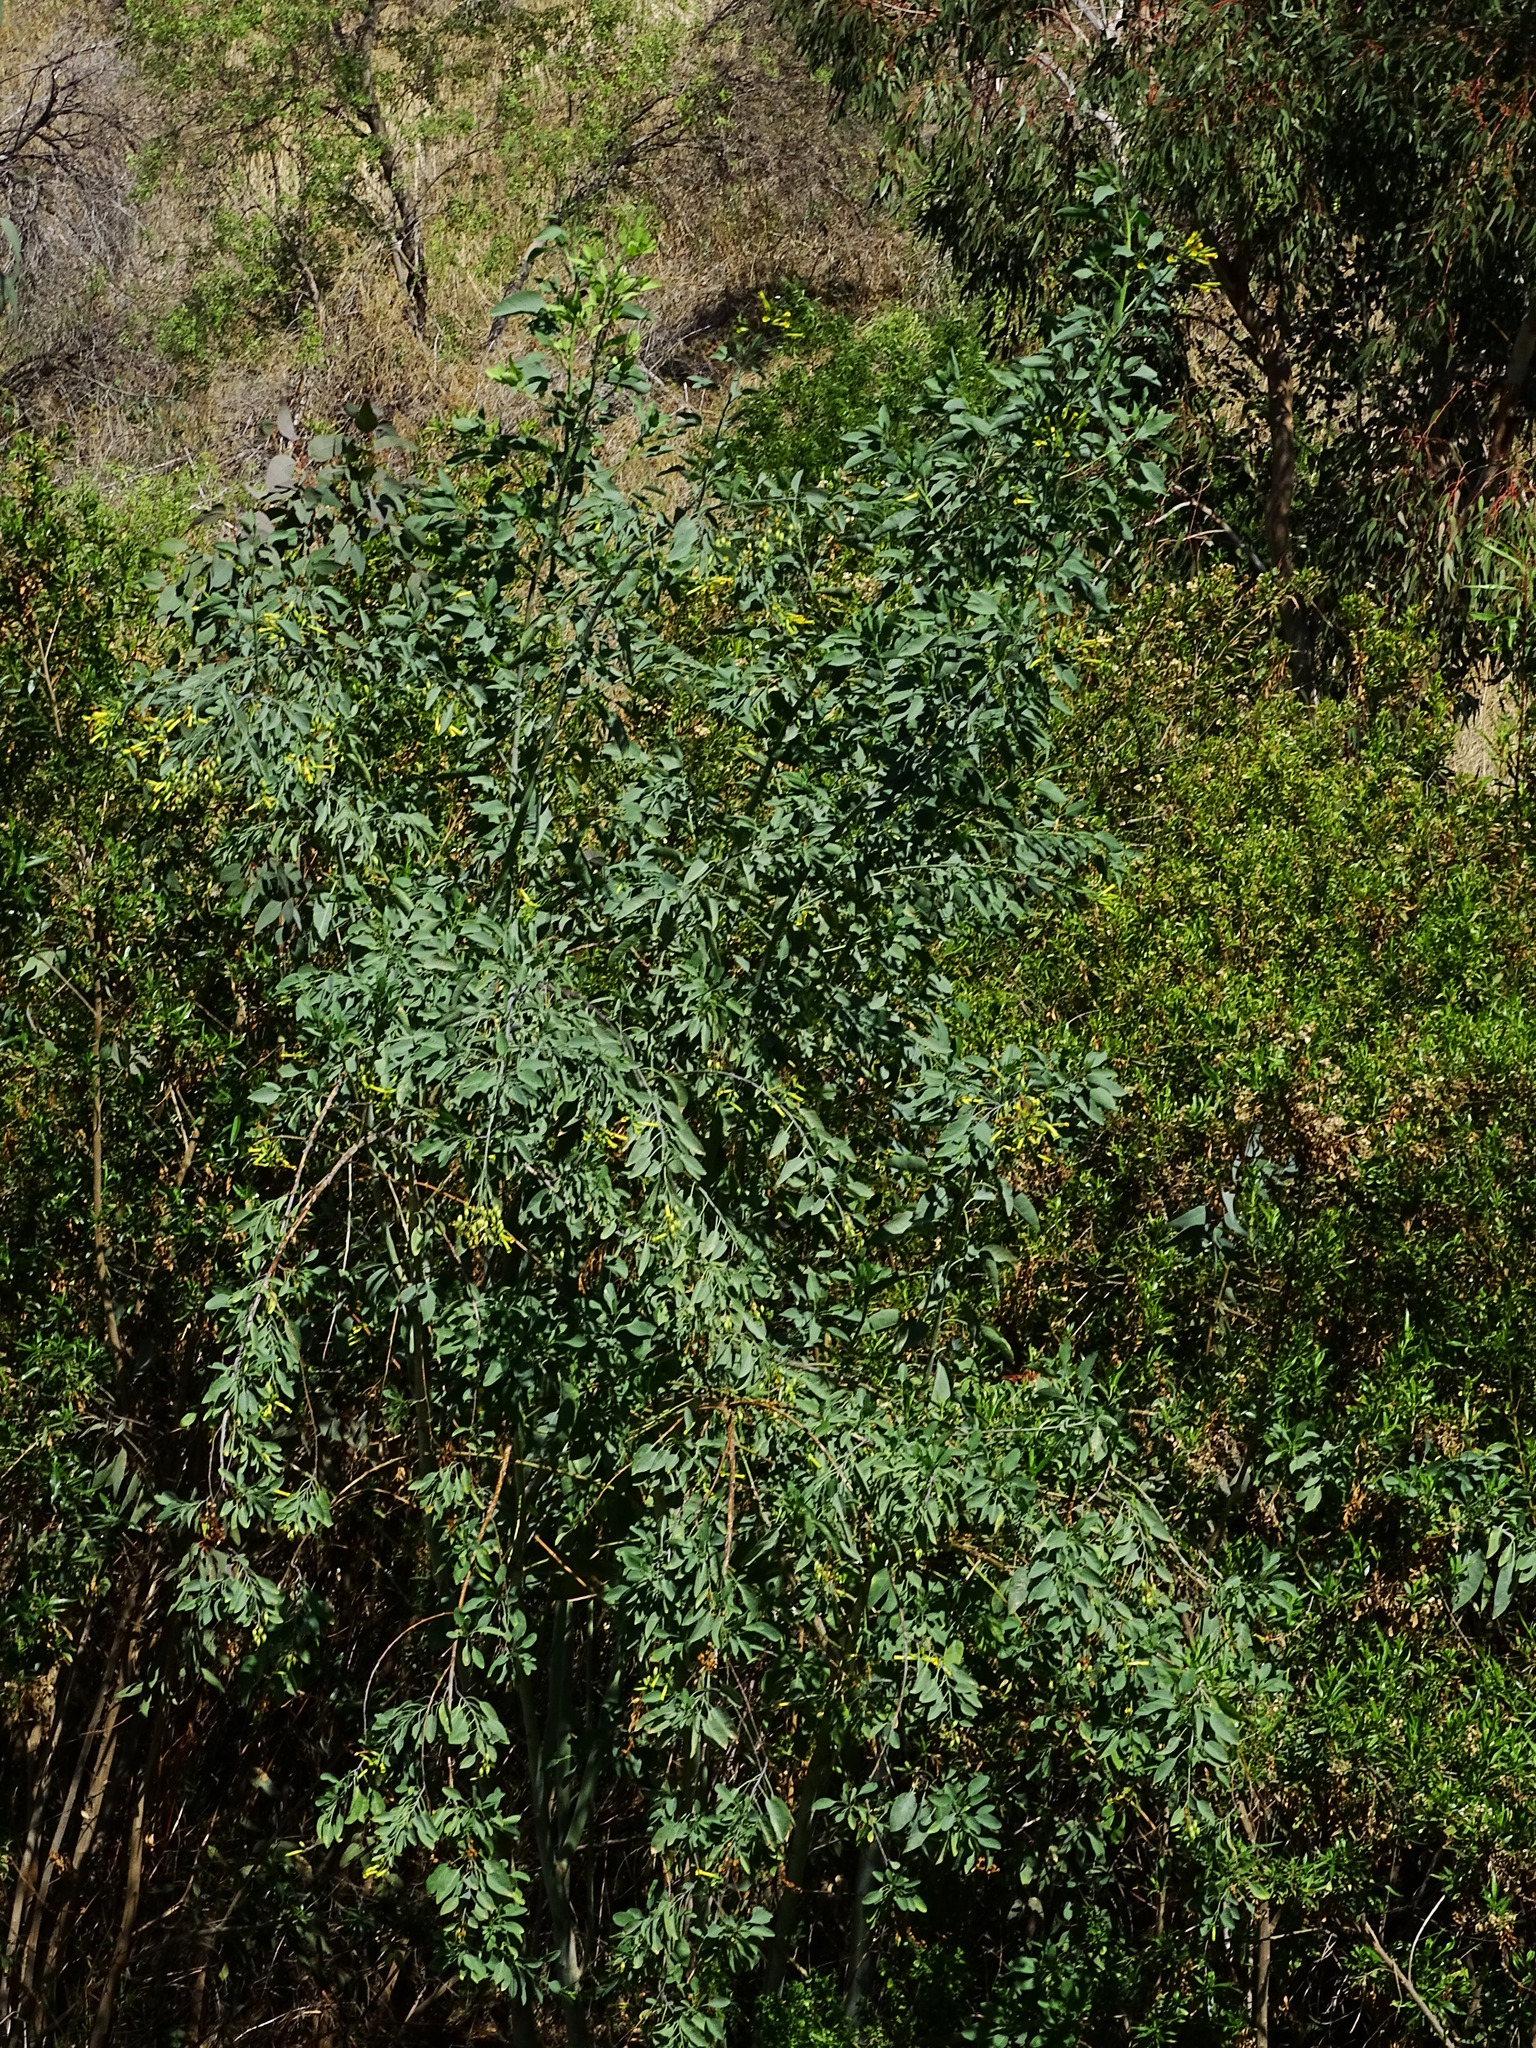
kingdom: Plantae
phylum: Tracheophyta
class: Magnoliopsida
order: Solanales
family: Solanaceae
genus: Nicotiana
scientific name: Nicotiana glauca
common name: Tree tobacco
